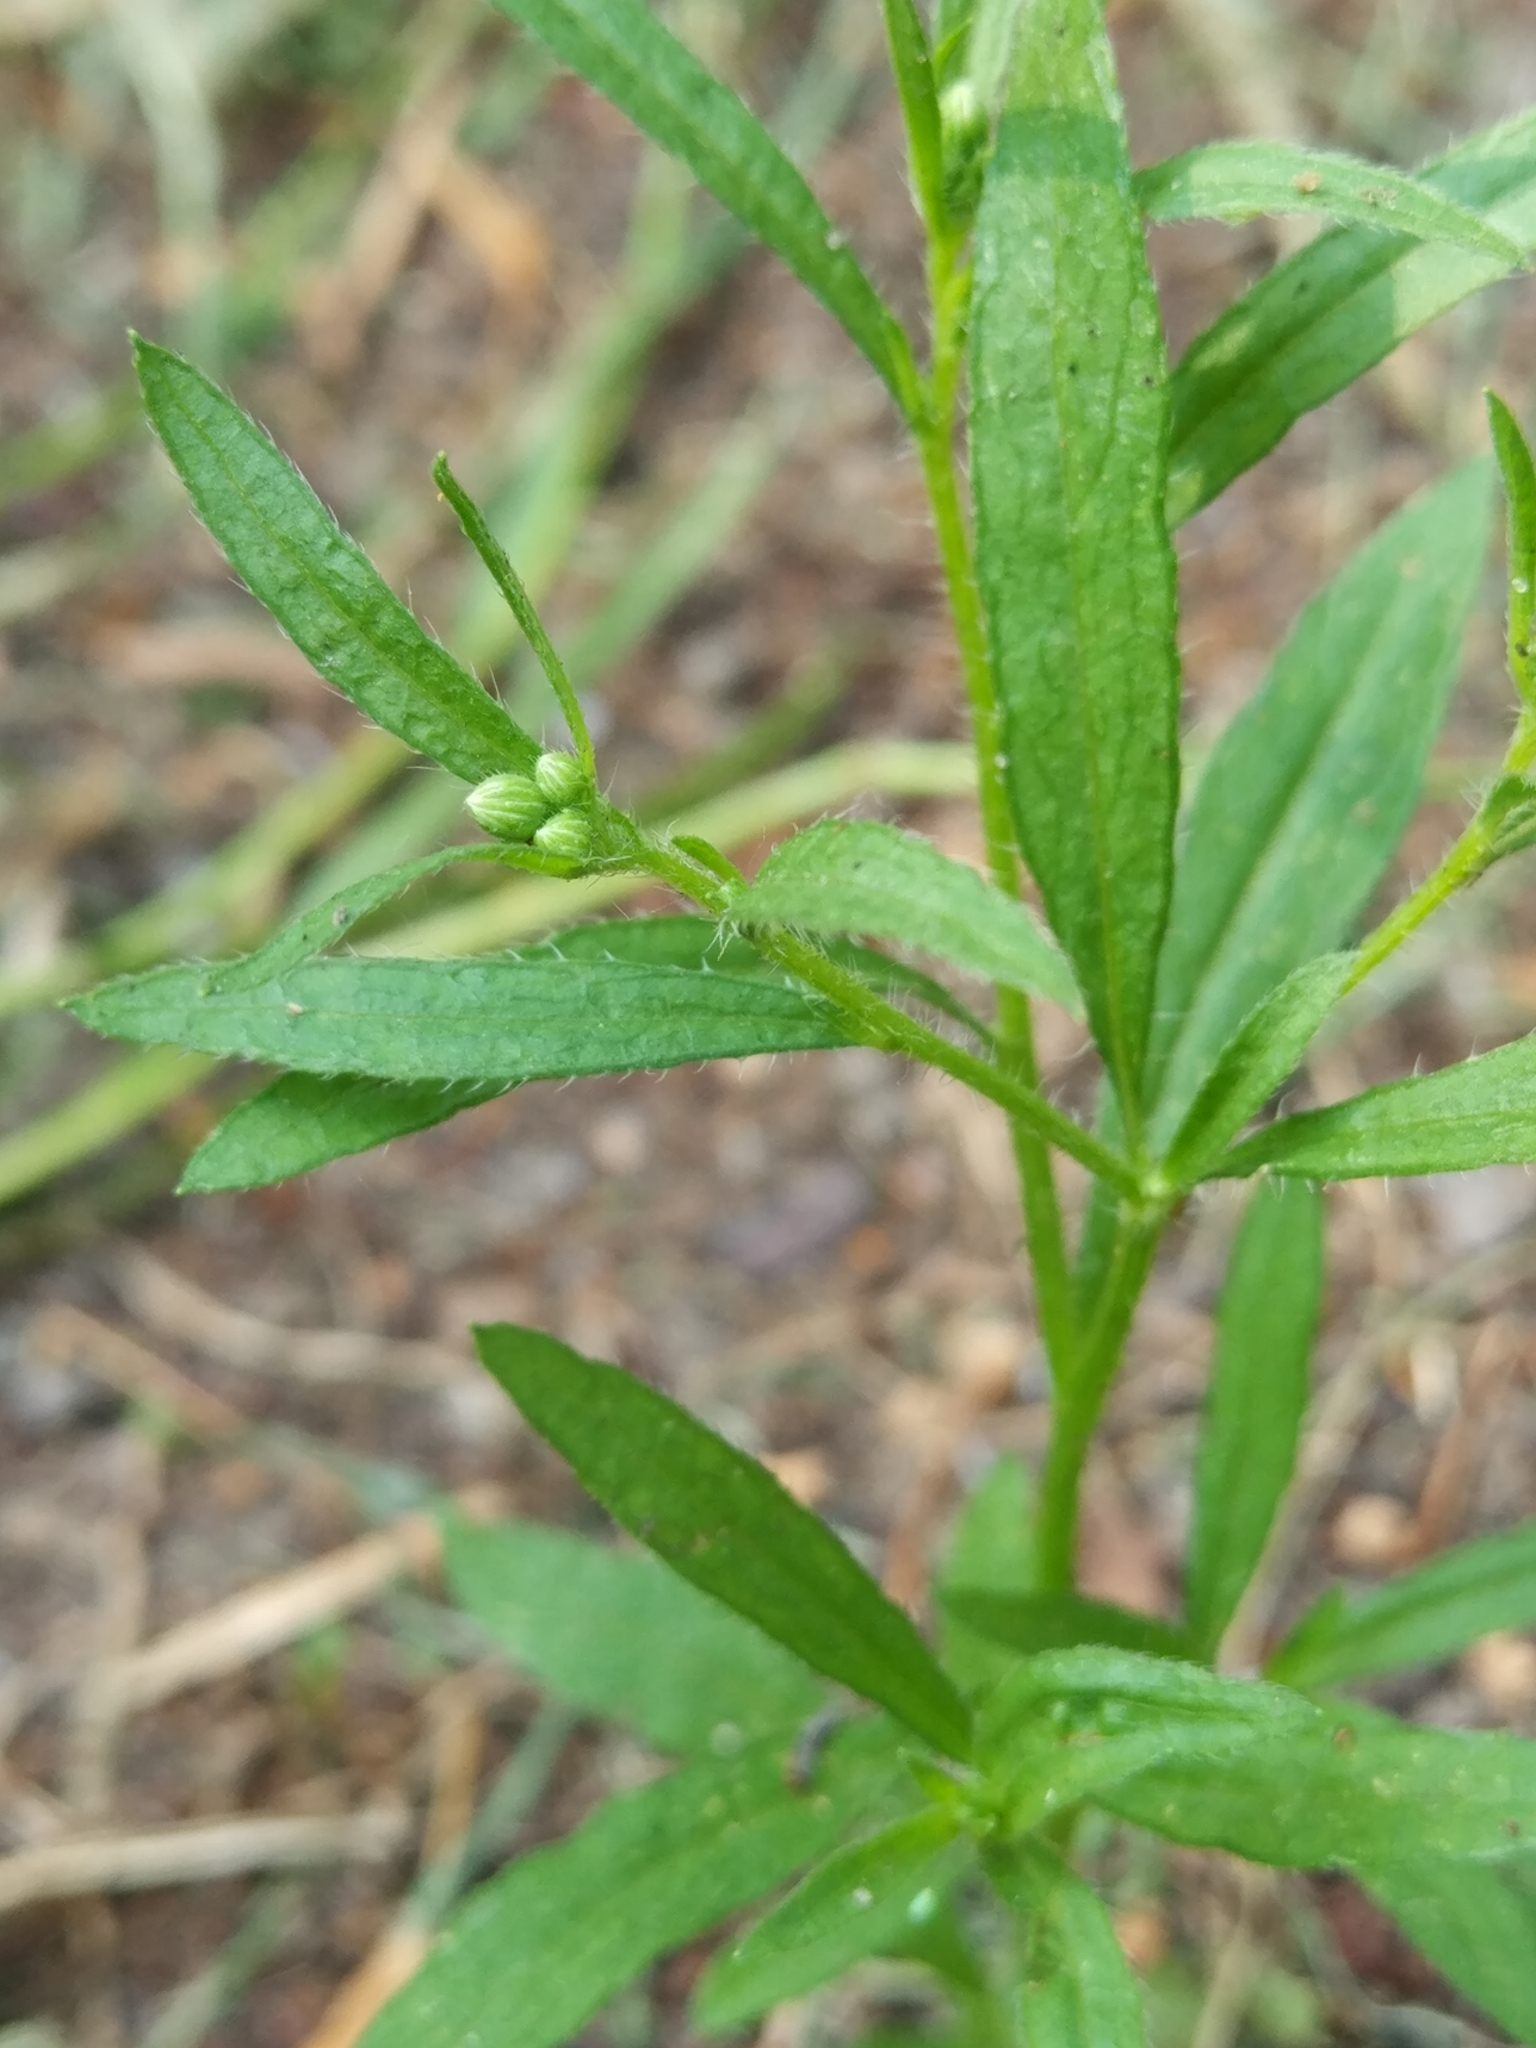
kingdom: Plantae
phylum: Tracheophyta
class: Magnoliopsida
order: Asterales
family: Asteraceae
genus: Erigeron
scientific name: Erigeron canadensis
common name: Canadian fleabane
